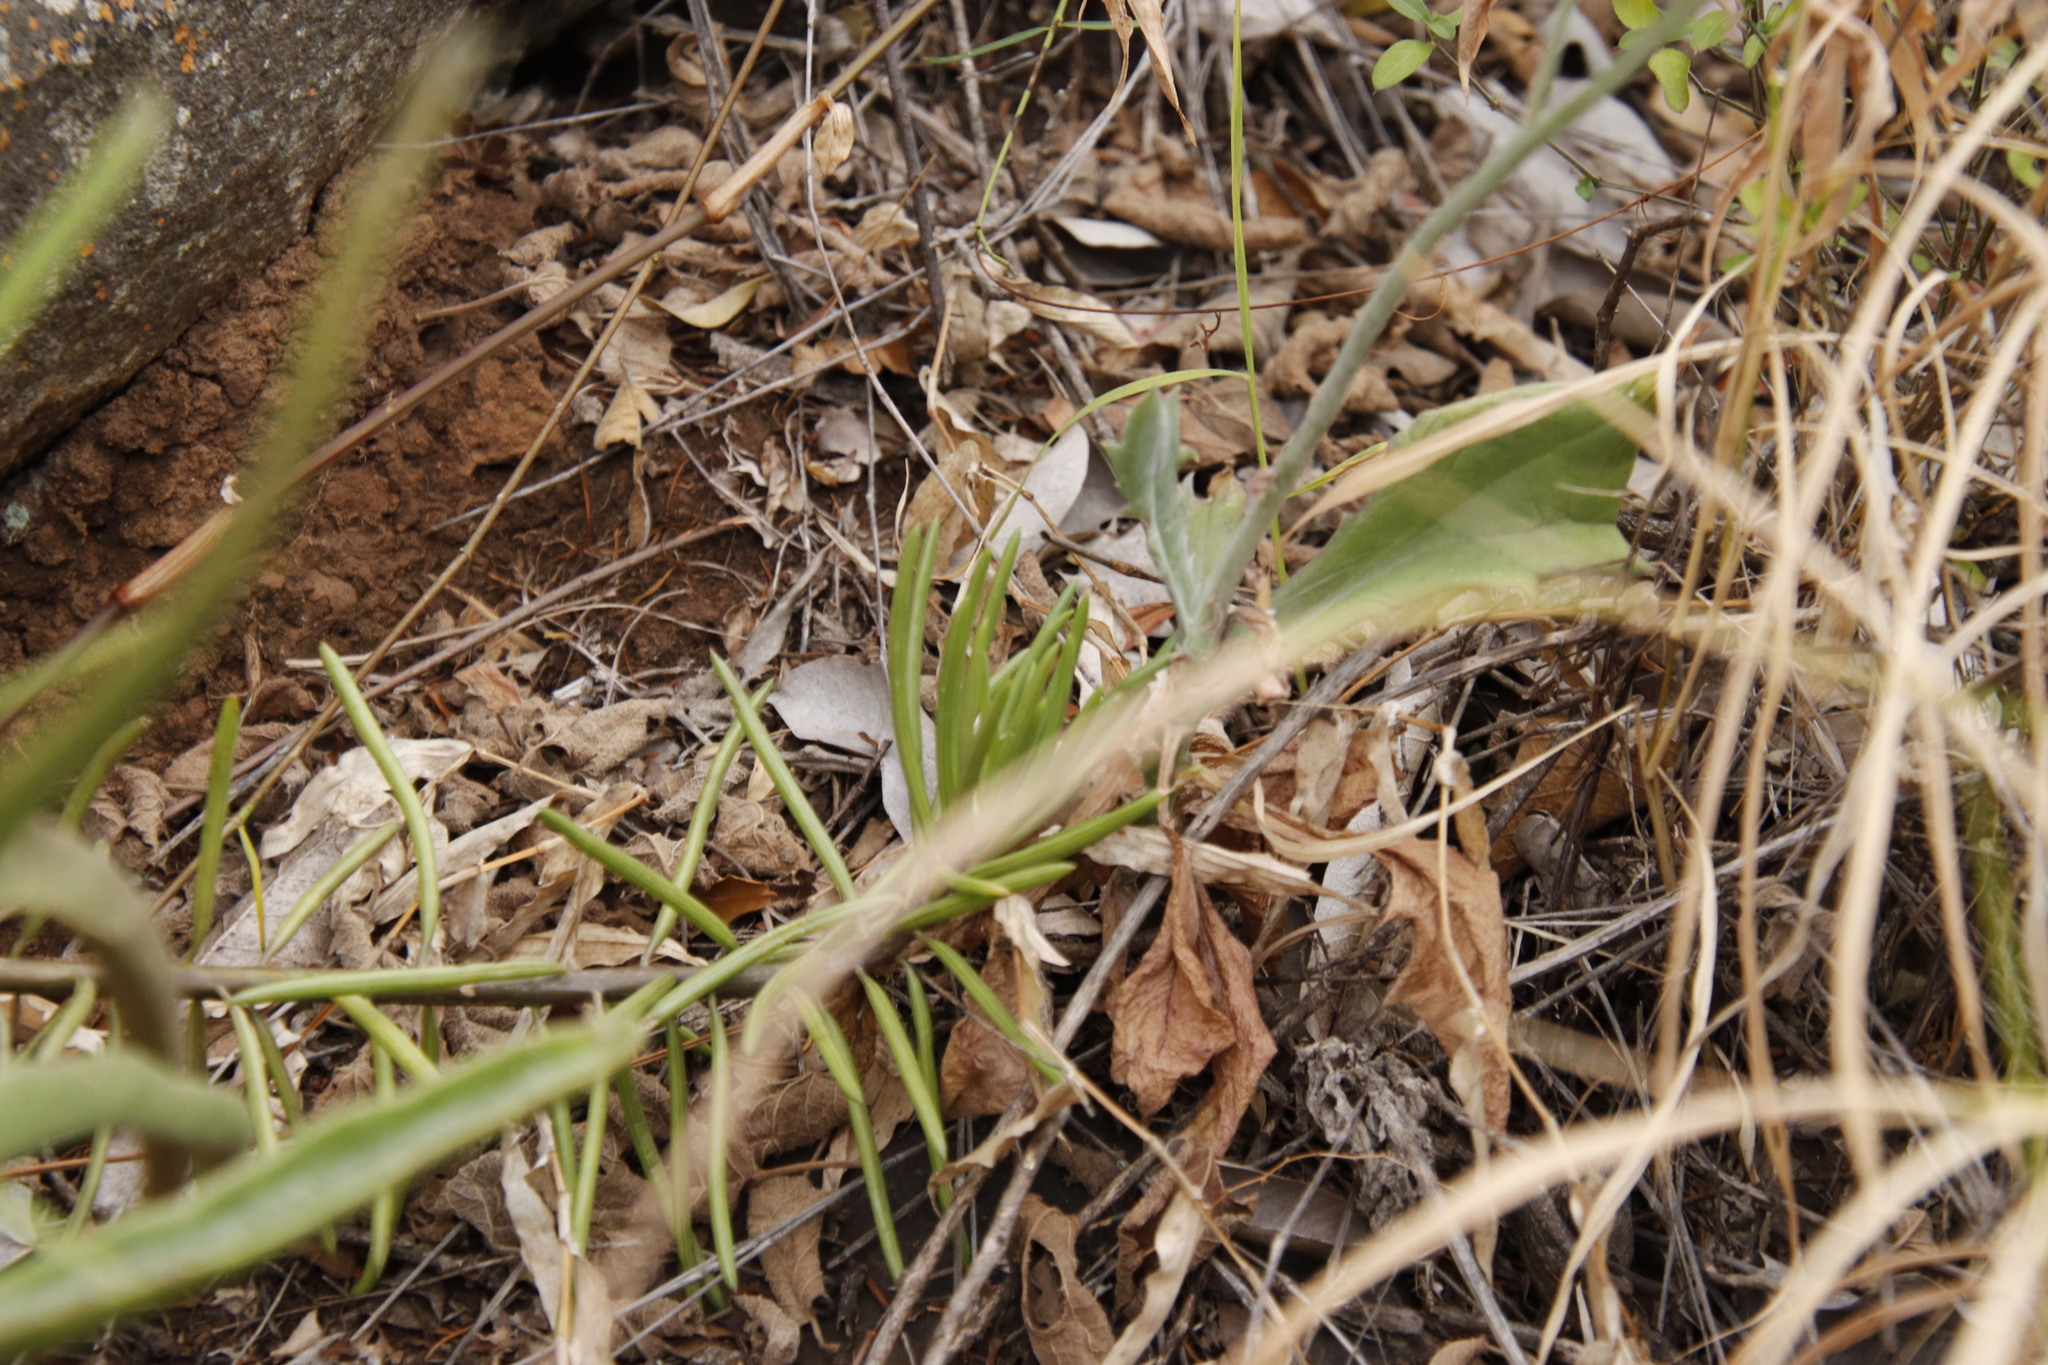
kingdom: Plantae
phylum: Tracheophyta
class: Magnoliopsida
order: Asterales
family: Asteraceae
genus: Kleinia
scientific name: Kleinia fulgens
